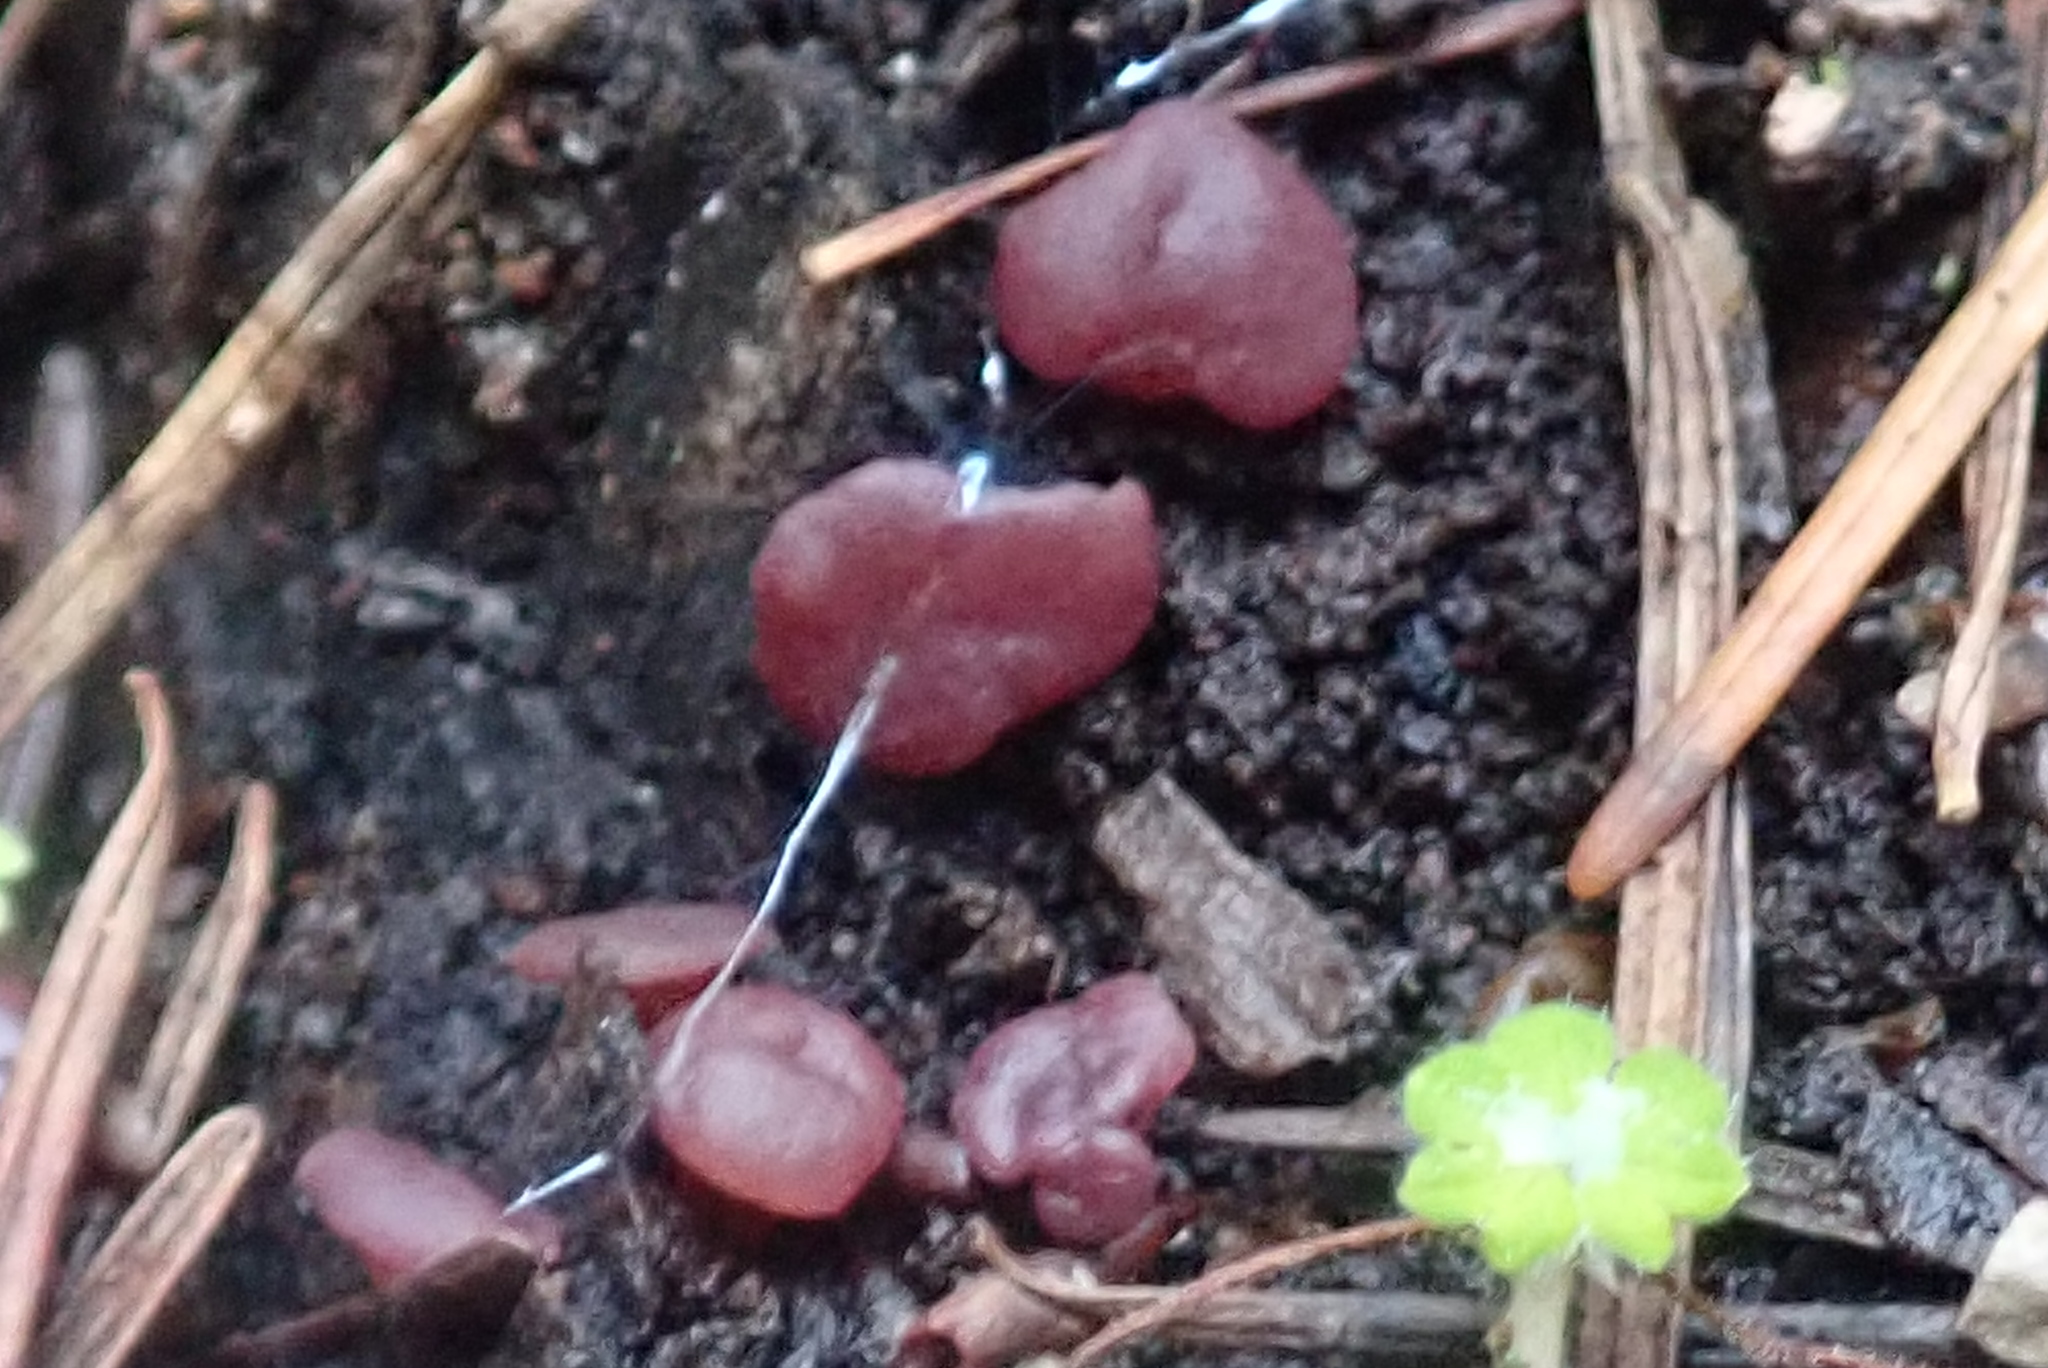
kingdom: Fungi
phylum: Ascomycota
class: Leotiomycetes
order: Helotiales
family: Gelatinodiscaceae
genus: Ascocoryne
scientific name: Ascocoryne sarcoides
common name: Purple jellydisc
